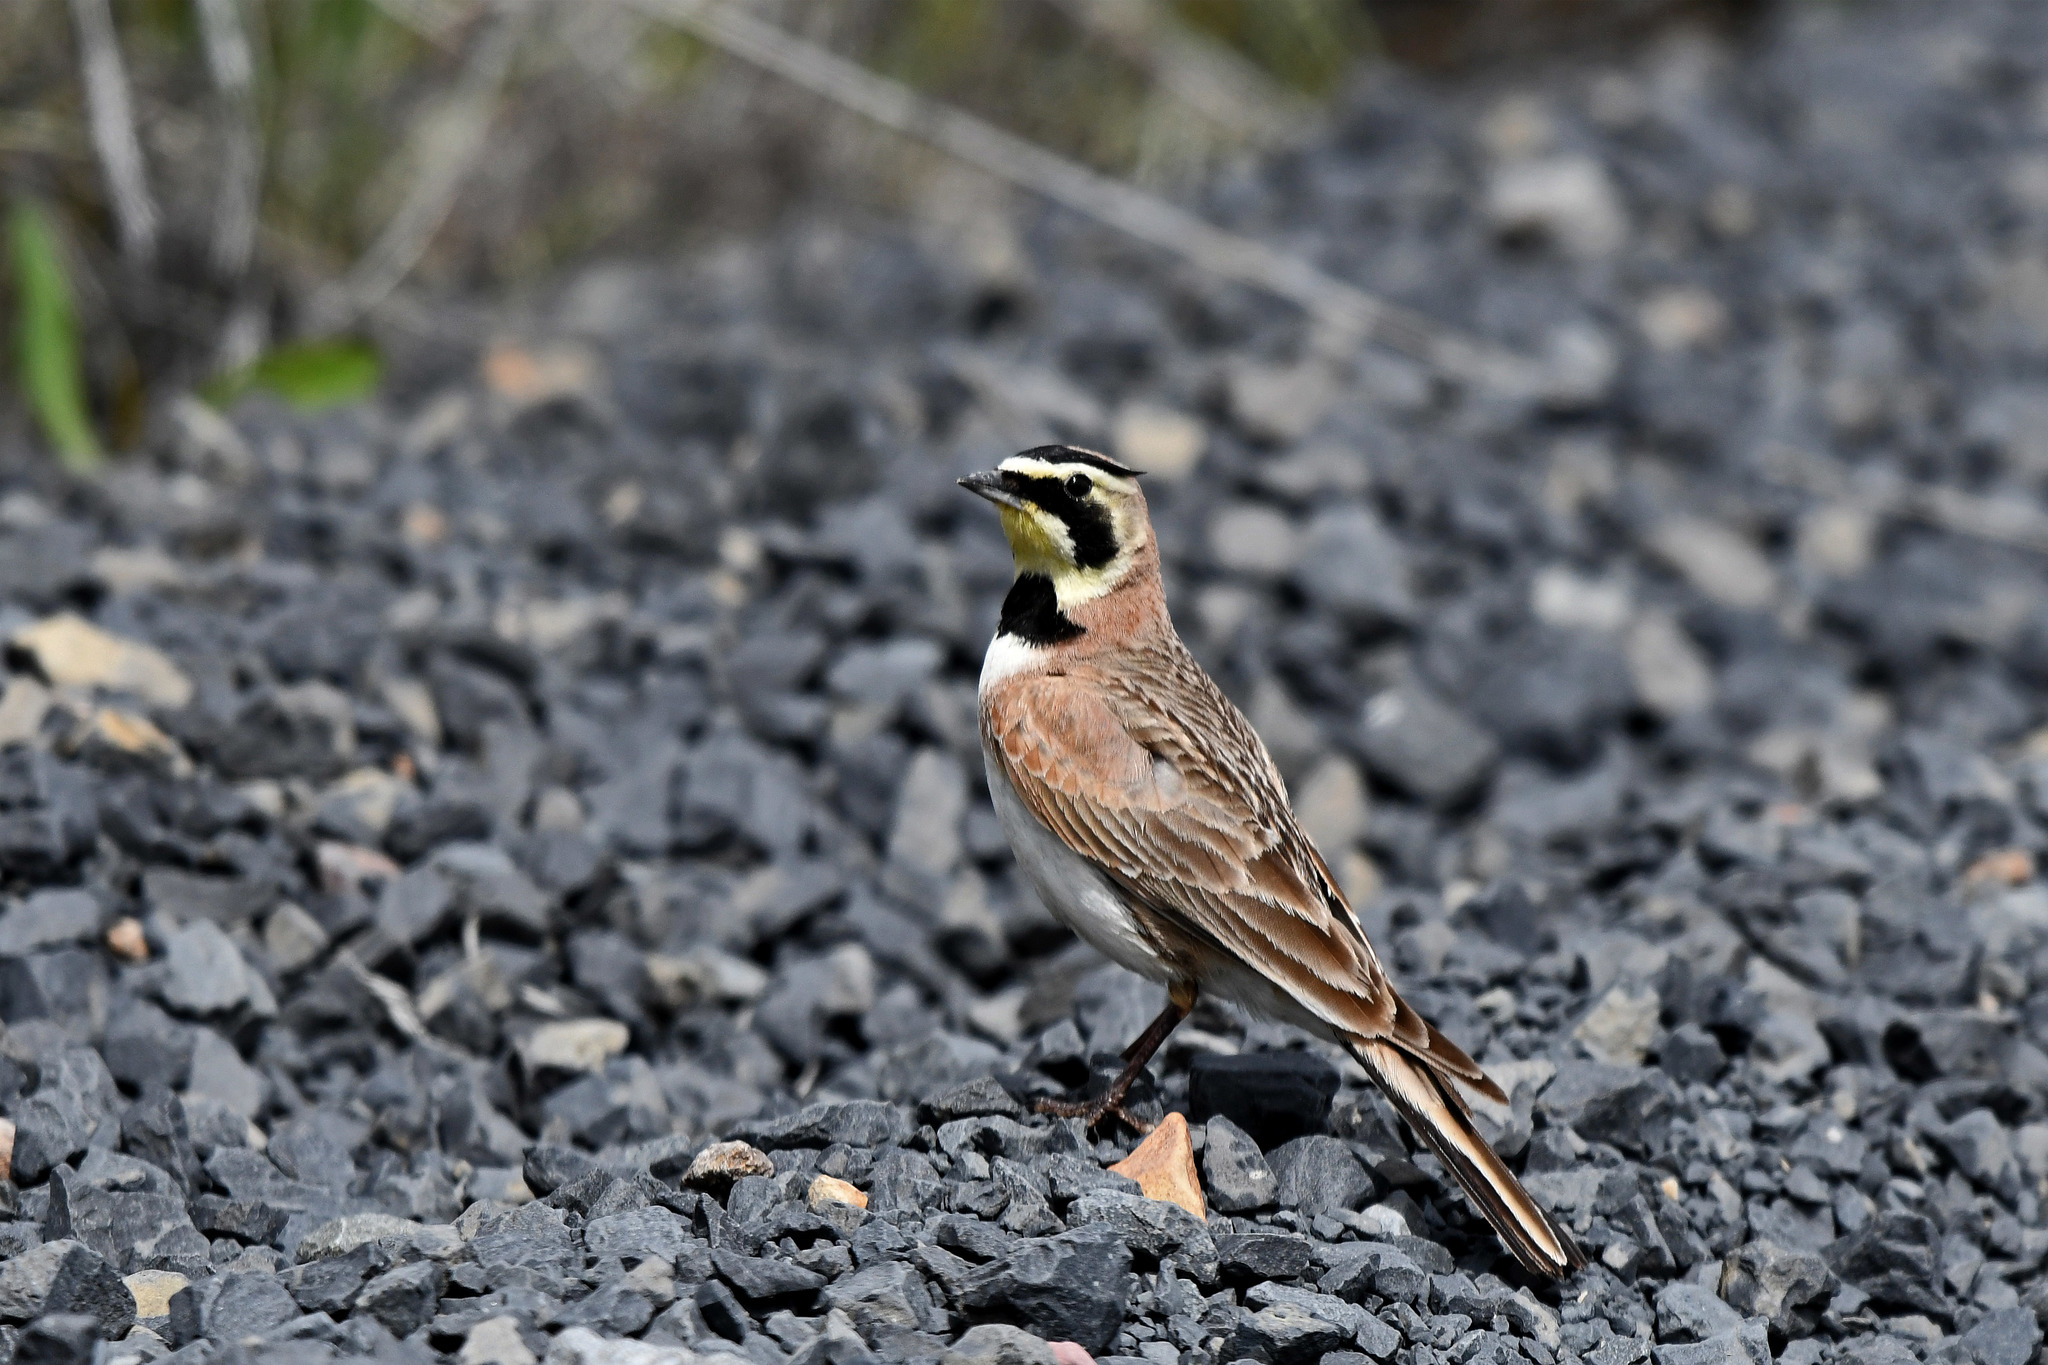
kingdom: Animalia
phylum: Chordata
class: Aves
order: Passeriformes
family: Alaudidae
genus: Eremophila
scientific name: Eremophila alpestris
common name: Horned lark
